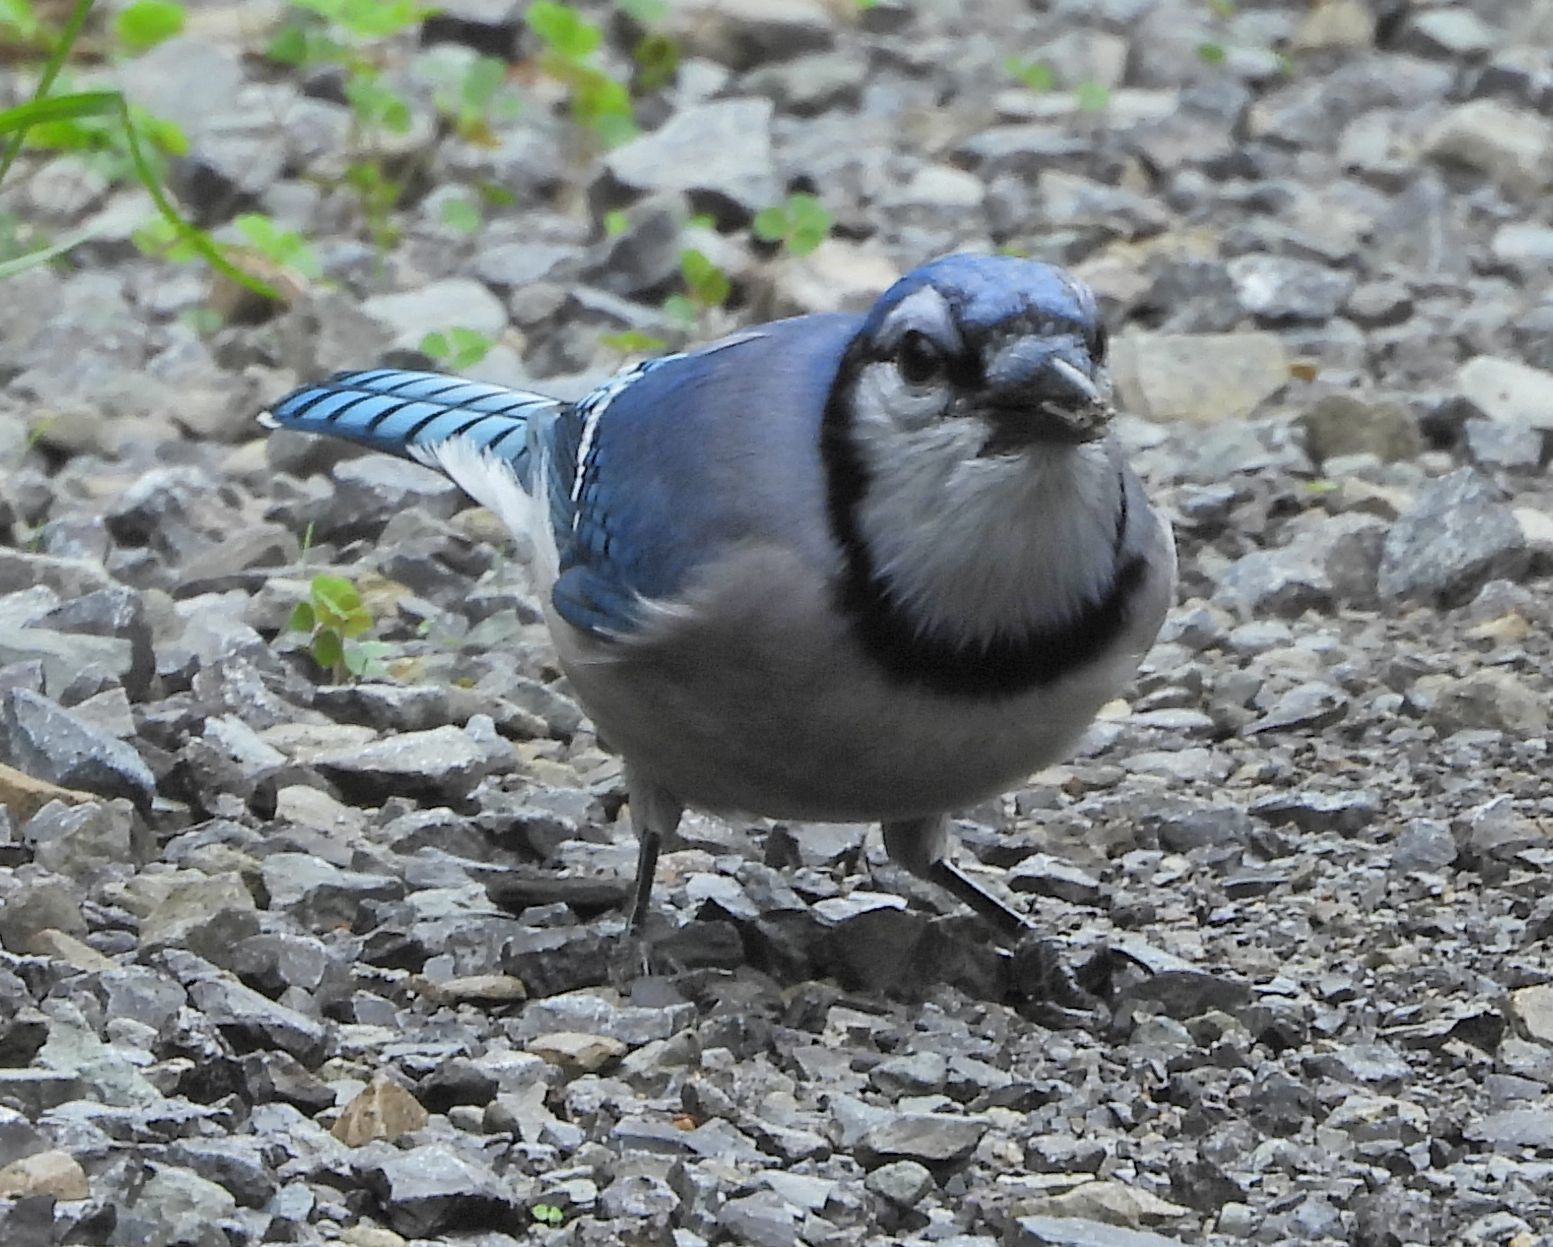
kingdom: Animalia
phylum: Chordata
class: Aves
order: Passeriformes
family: Corvidae
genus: Cyanocitta
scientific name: Cyanocitta cristata
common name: Blue jay
